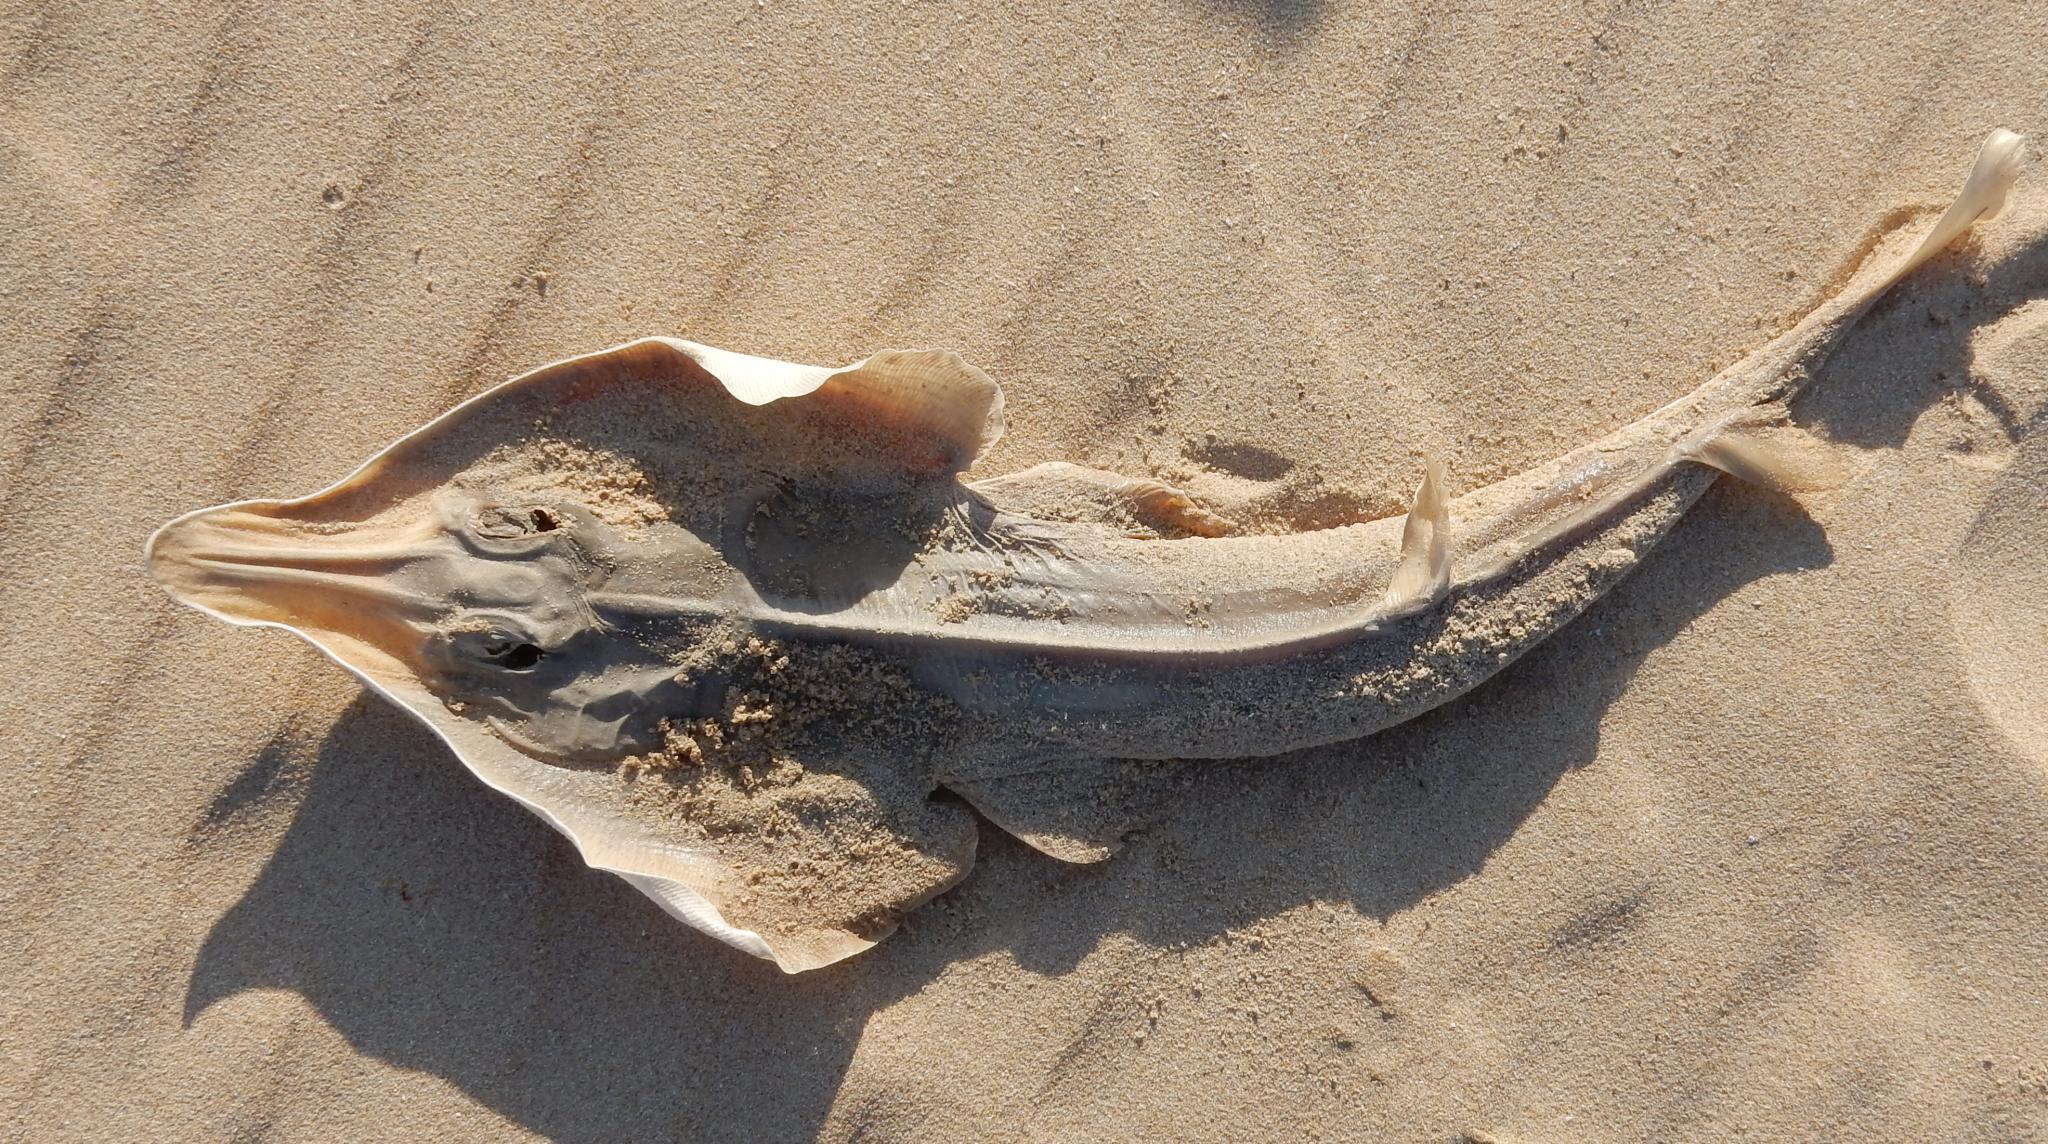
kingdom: Animalia
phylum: Chordata
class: Elasmobranchii
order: Rhinopristiformes
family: Rhinobatidae
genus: Acroteriobatus
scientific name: Acroteriobatus annulatus
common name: Lesser guitarfish
